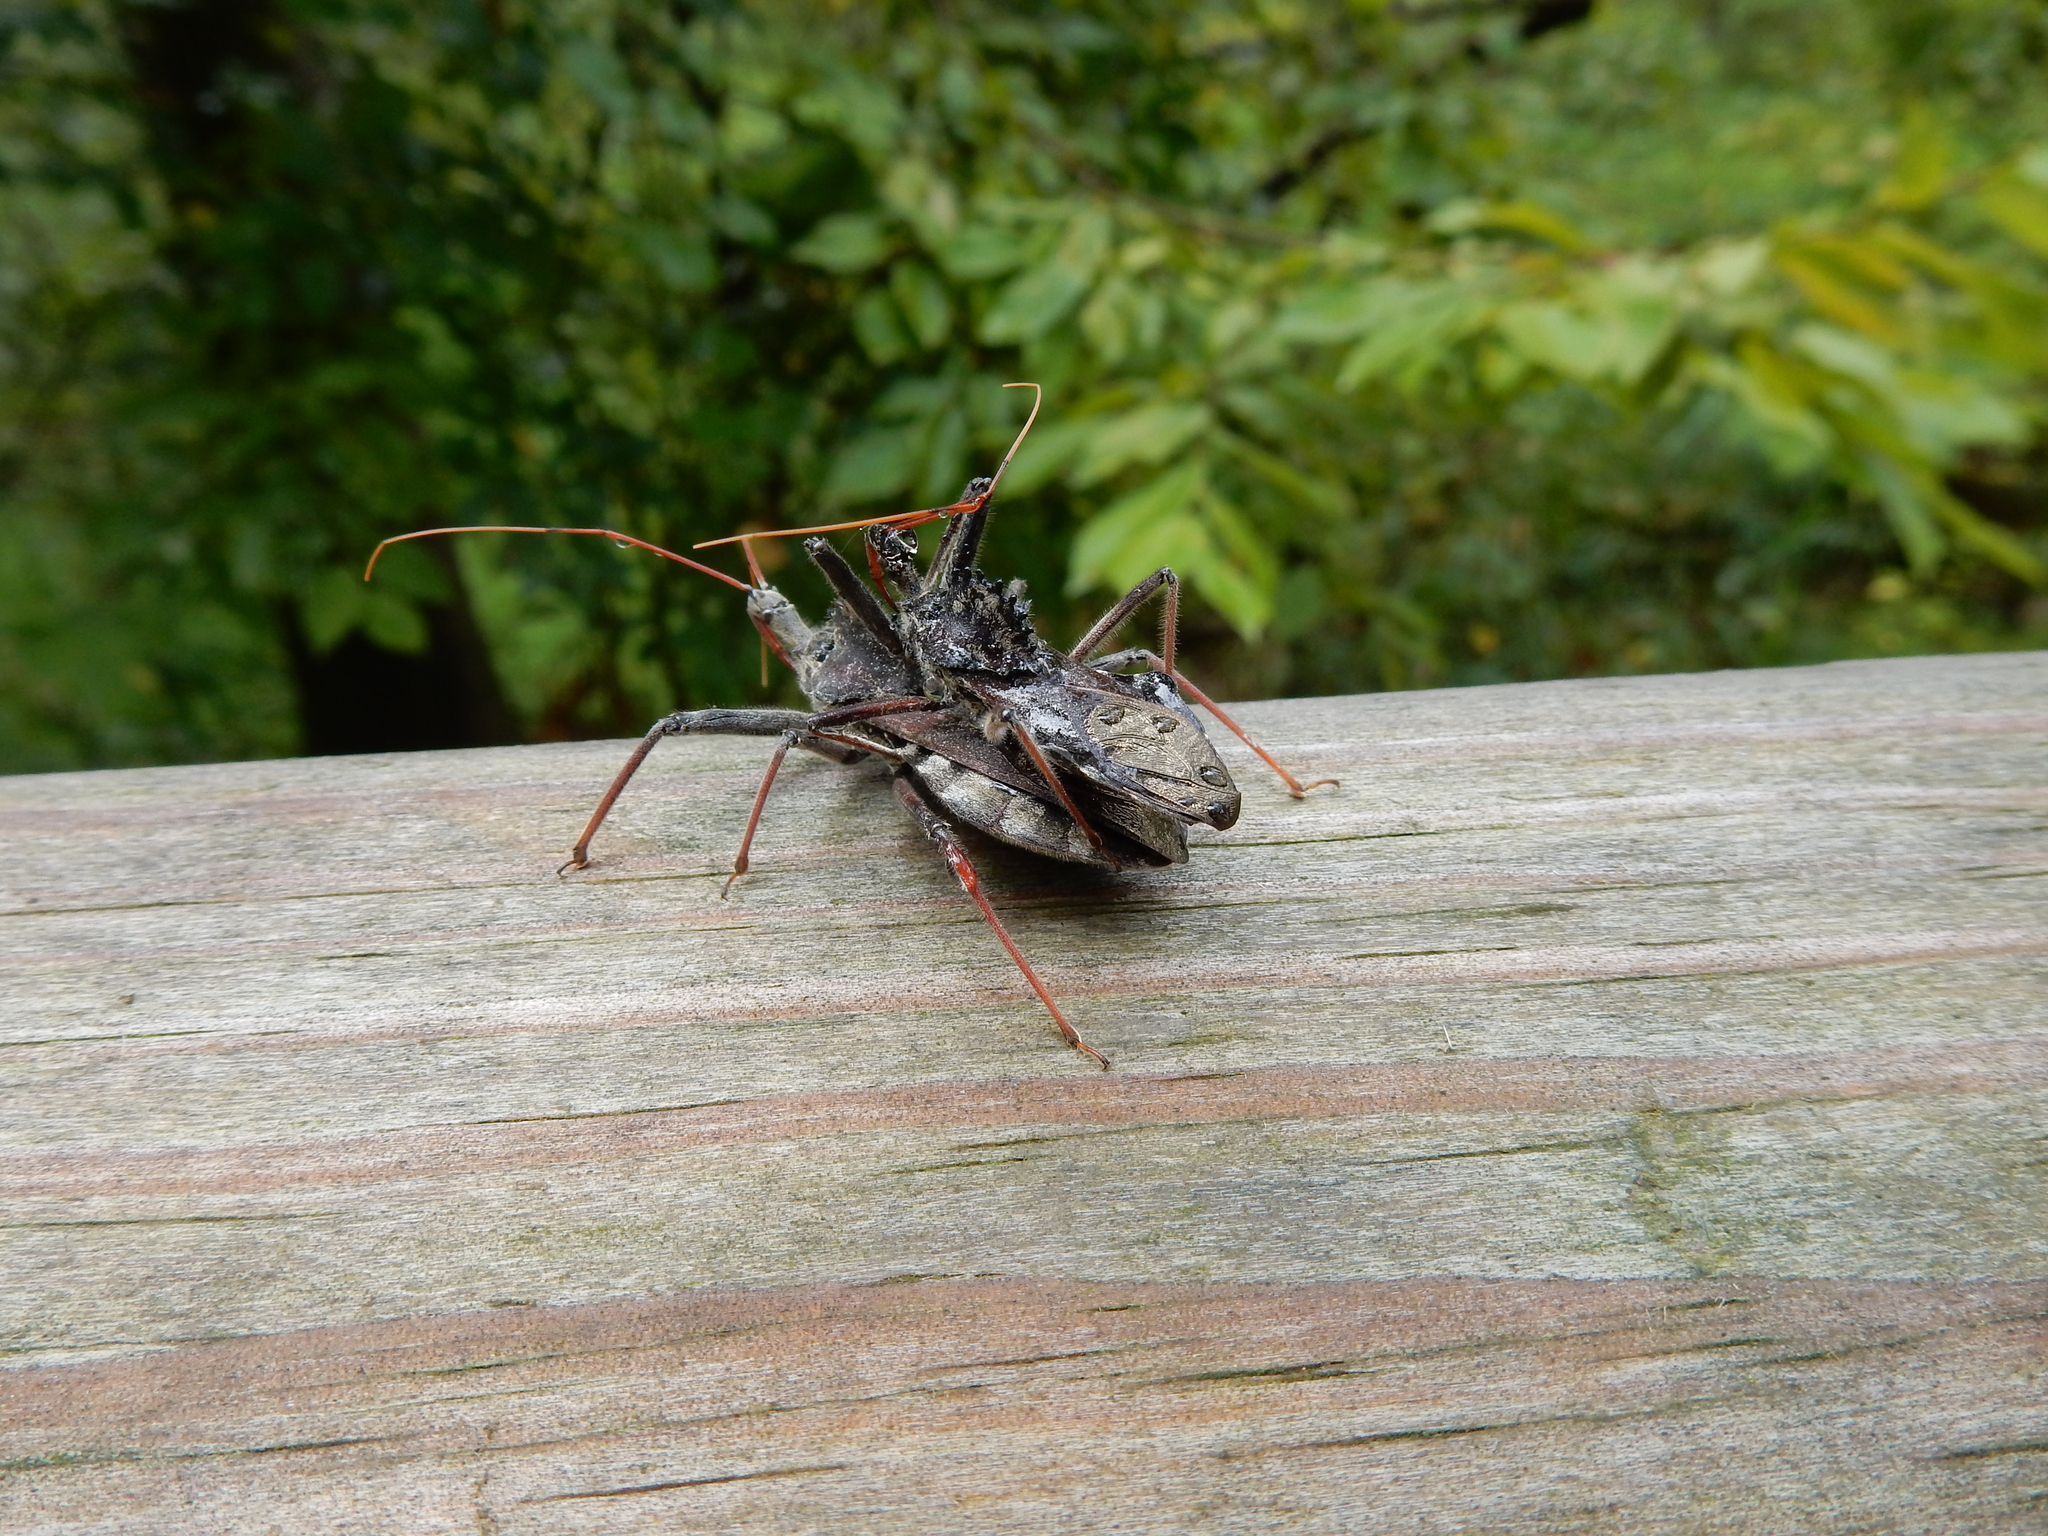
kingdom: Animalia
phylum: Arthropoda
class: Insecta
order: Hemiptera
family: Reduviidae
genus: Arilus
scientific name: Arilus cristatus
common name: North american wheel bug
